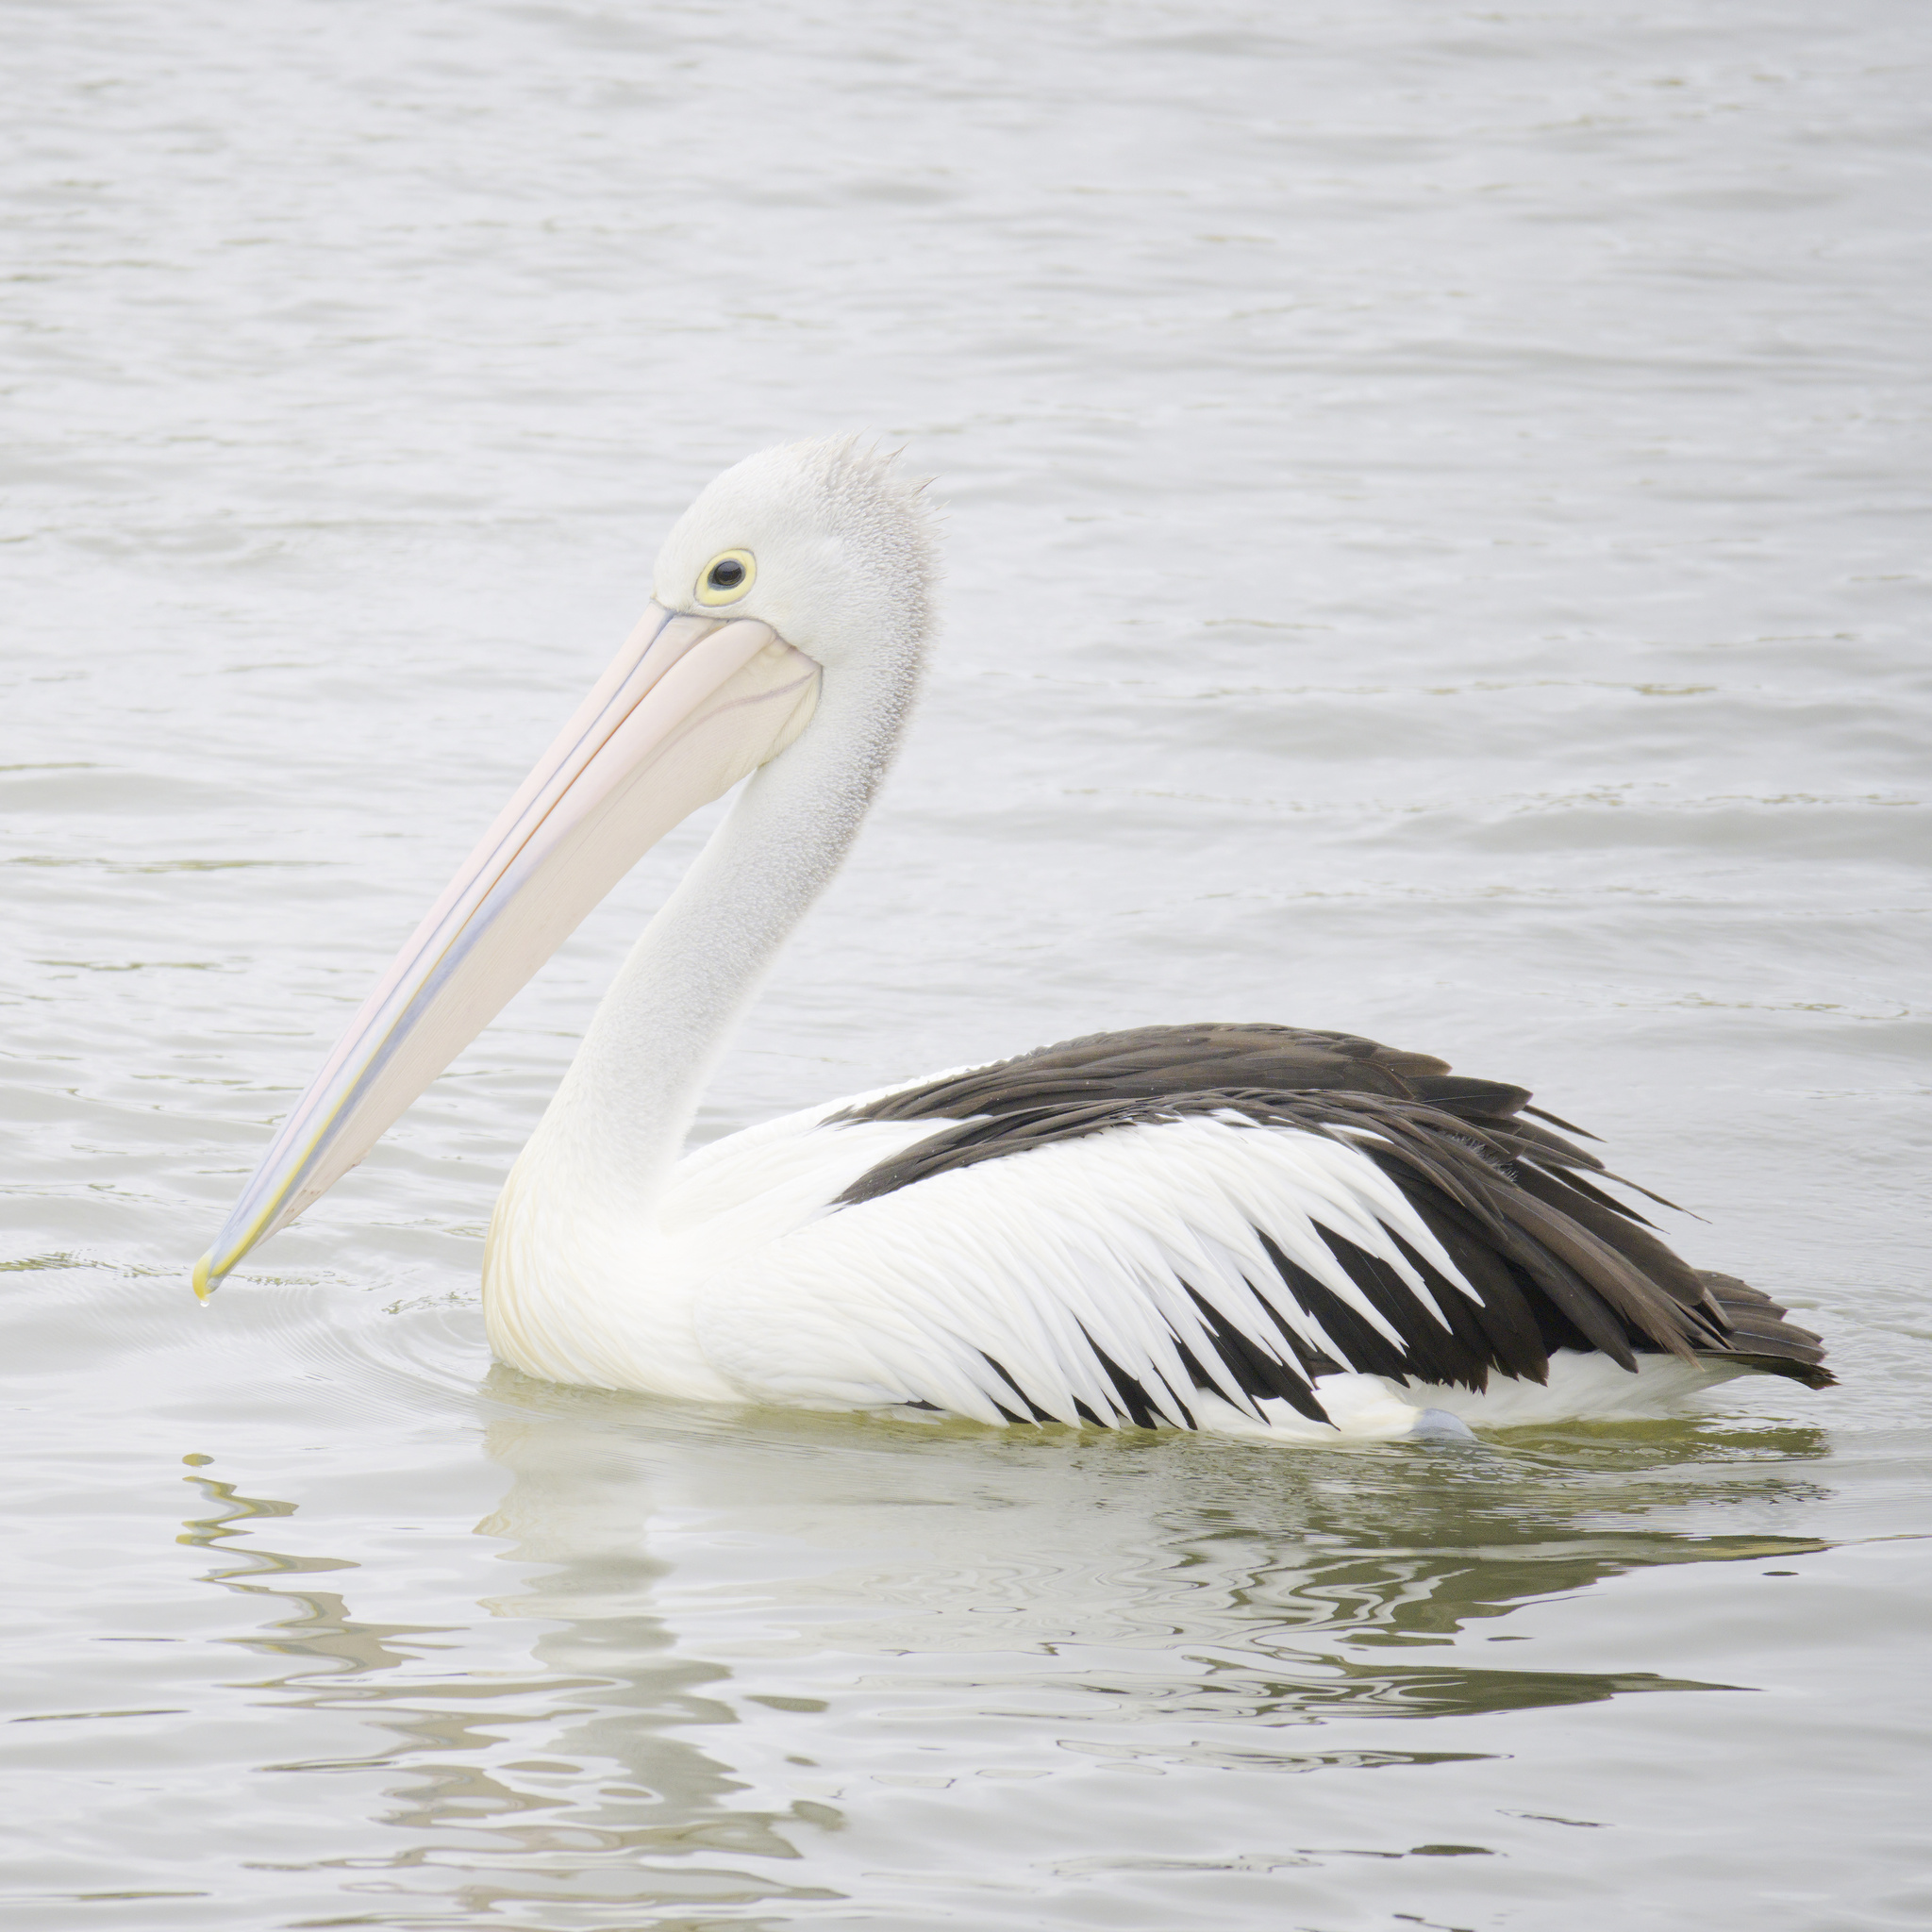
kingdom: Animalia
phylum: Chordata
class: Aves
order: Pelecaniformes
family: Pelecanidae
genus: Pelecanus
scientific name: Pelecanus conspicillatus
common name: Australian pelican
